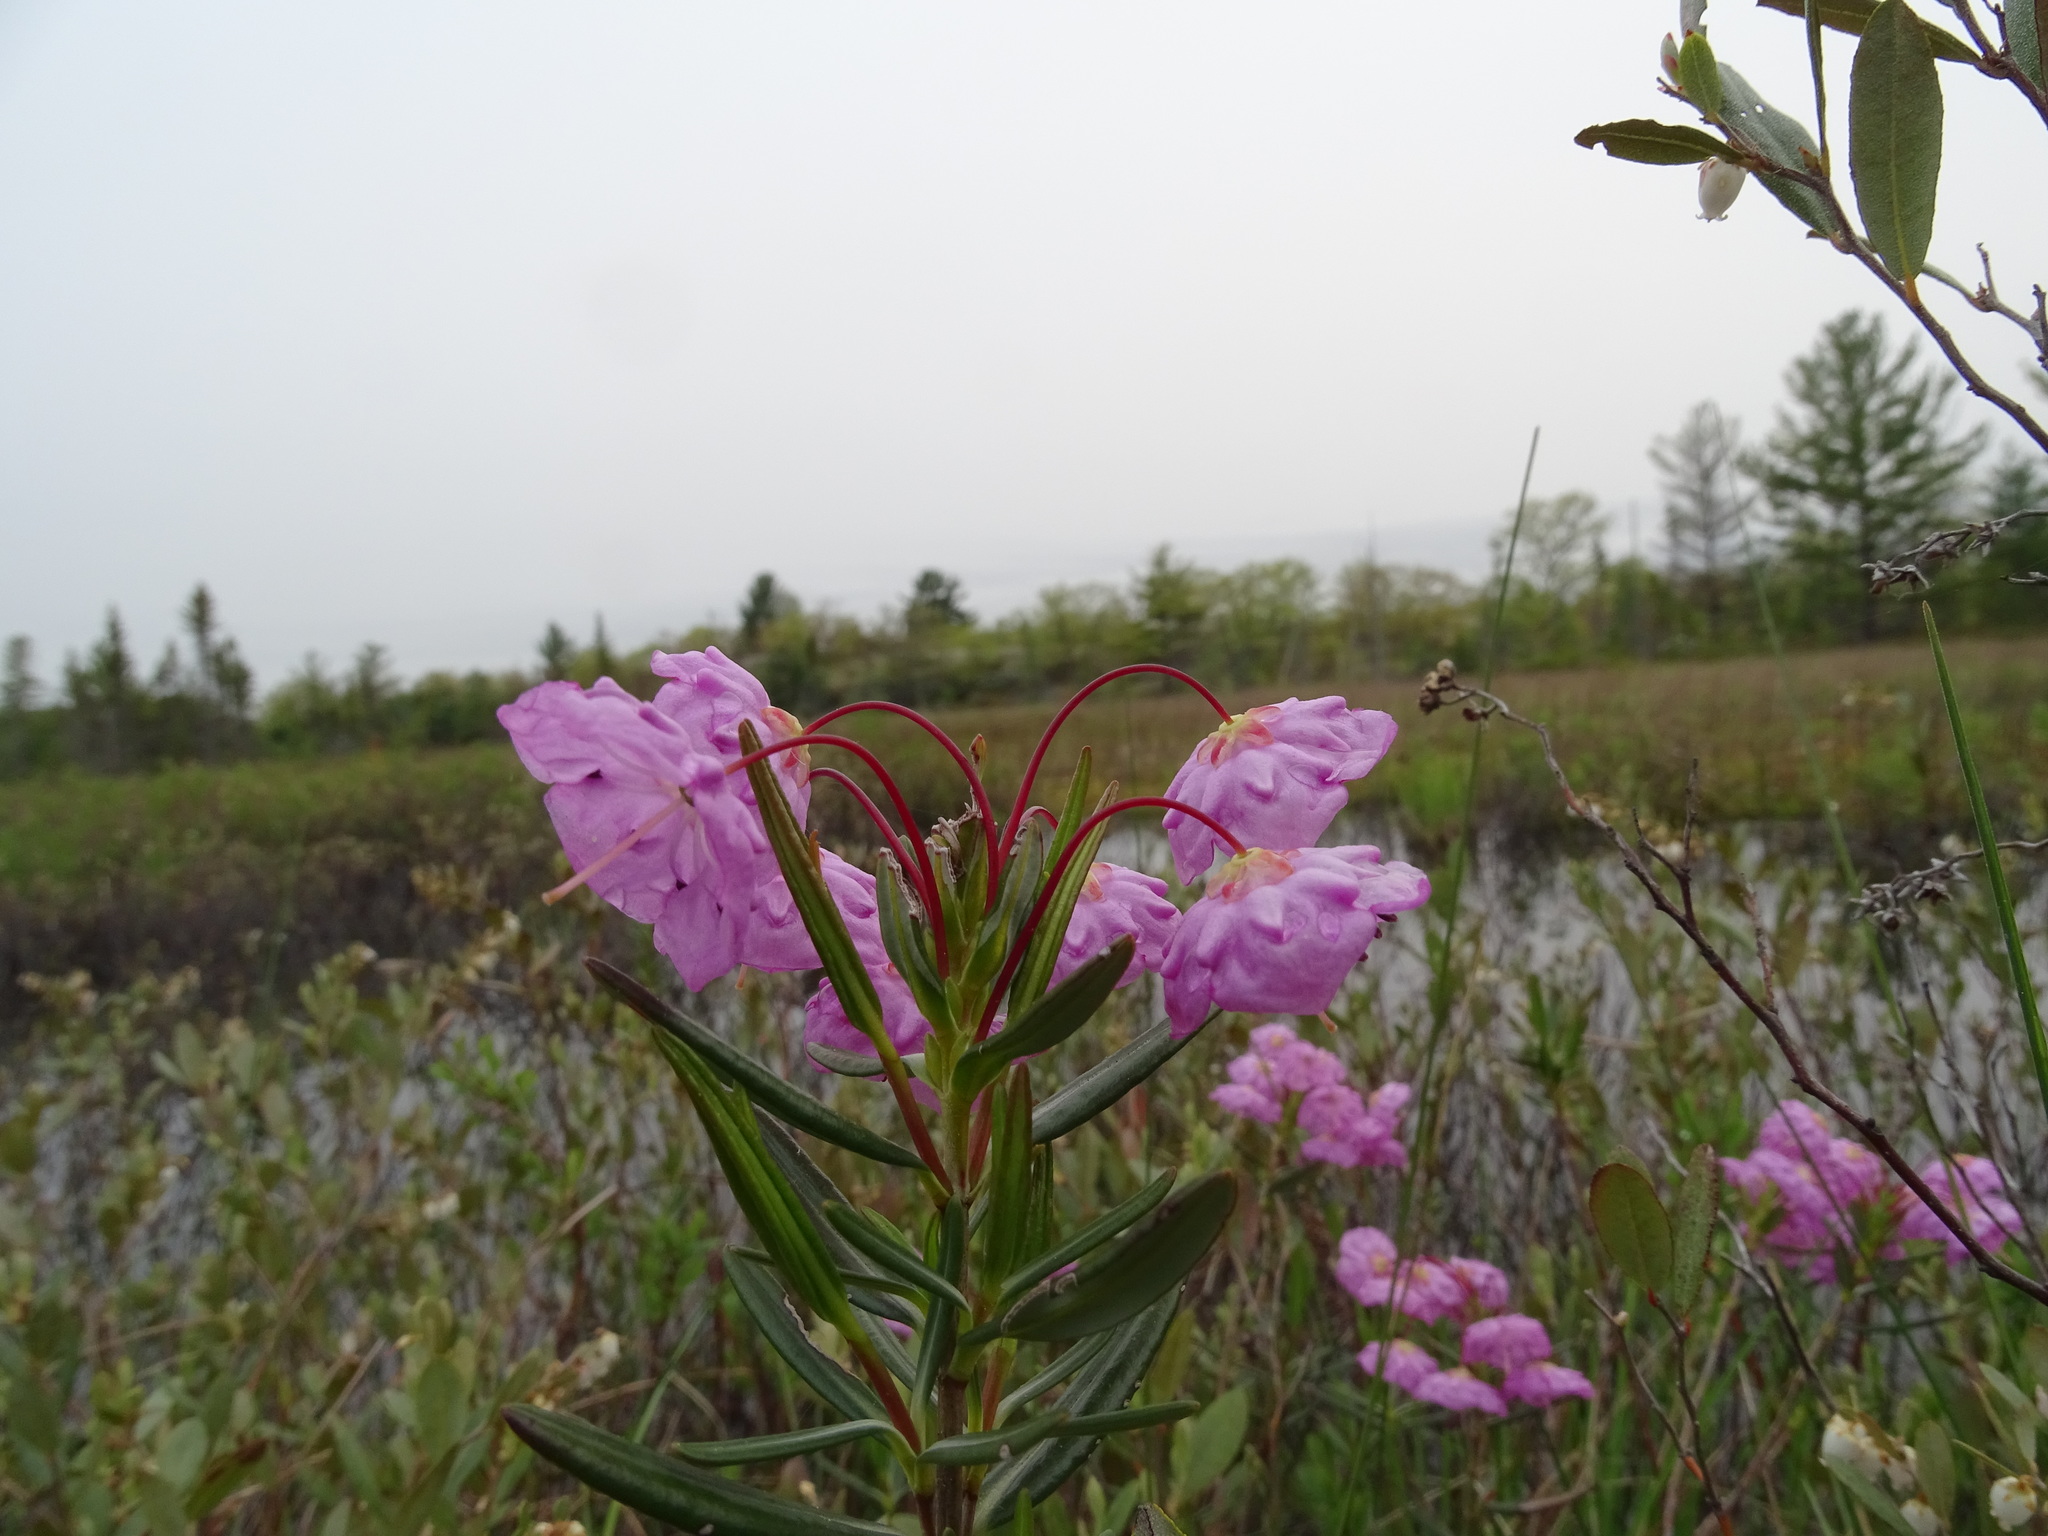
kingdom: Plantae
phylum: Tracheophyta
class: Magnoliopsida
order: Ericales
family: Ericaceae
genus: Kalmia
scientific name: Kalmia polifolia
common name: Bog-laurel
